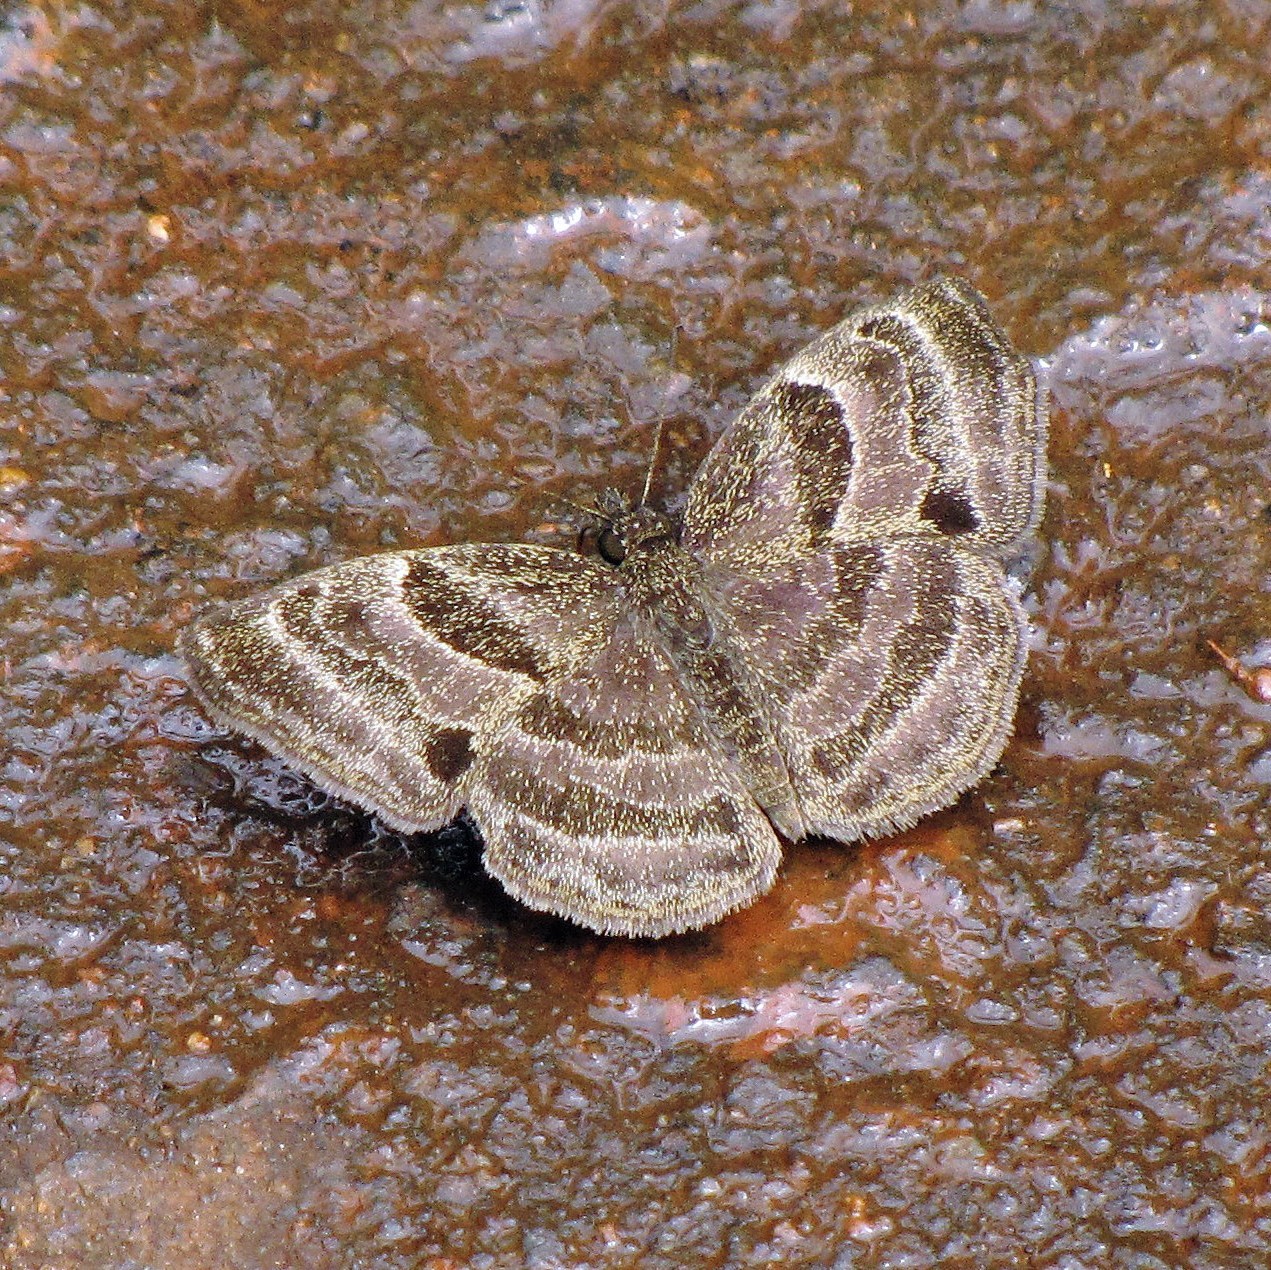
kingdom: Animalia
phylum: Arthropoda
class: Insecta
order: Lepidoptera
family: Hesperiidae
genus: Trina
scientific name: Trina geometrina
